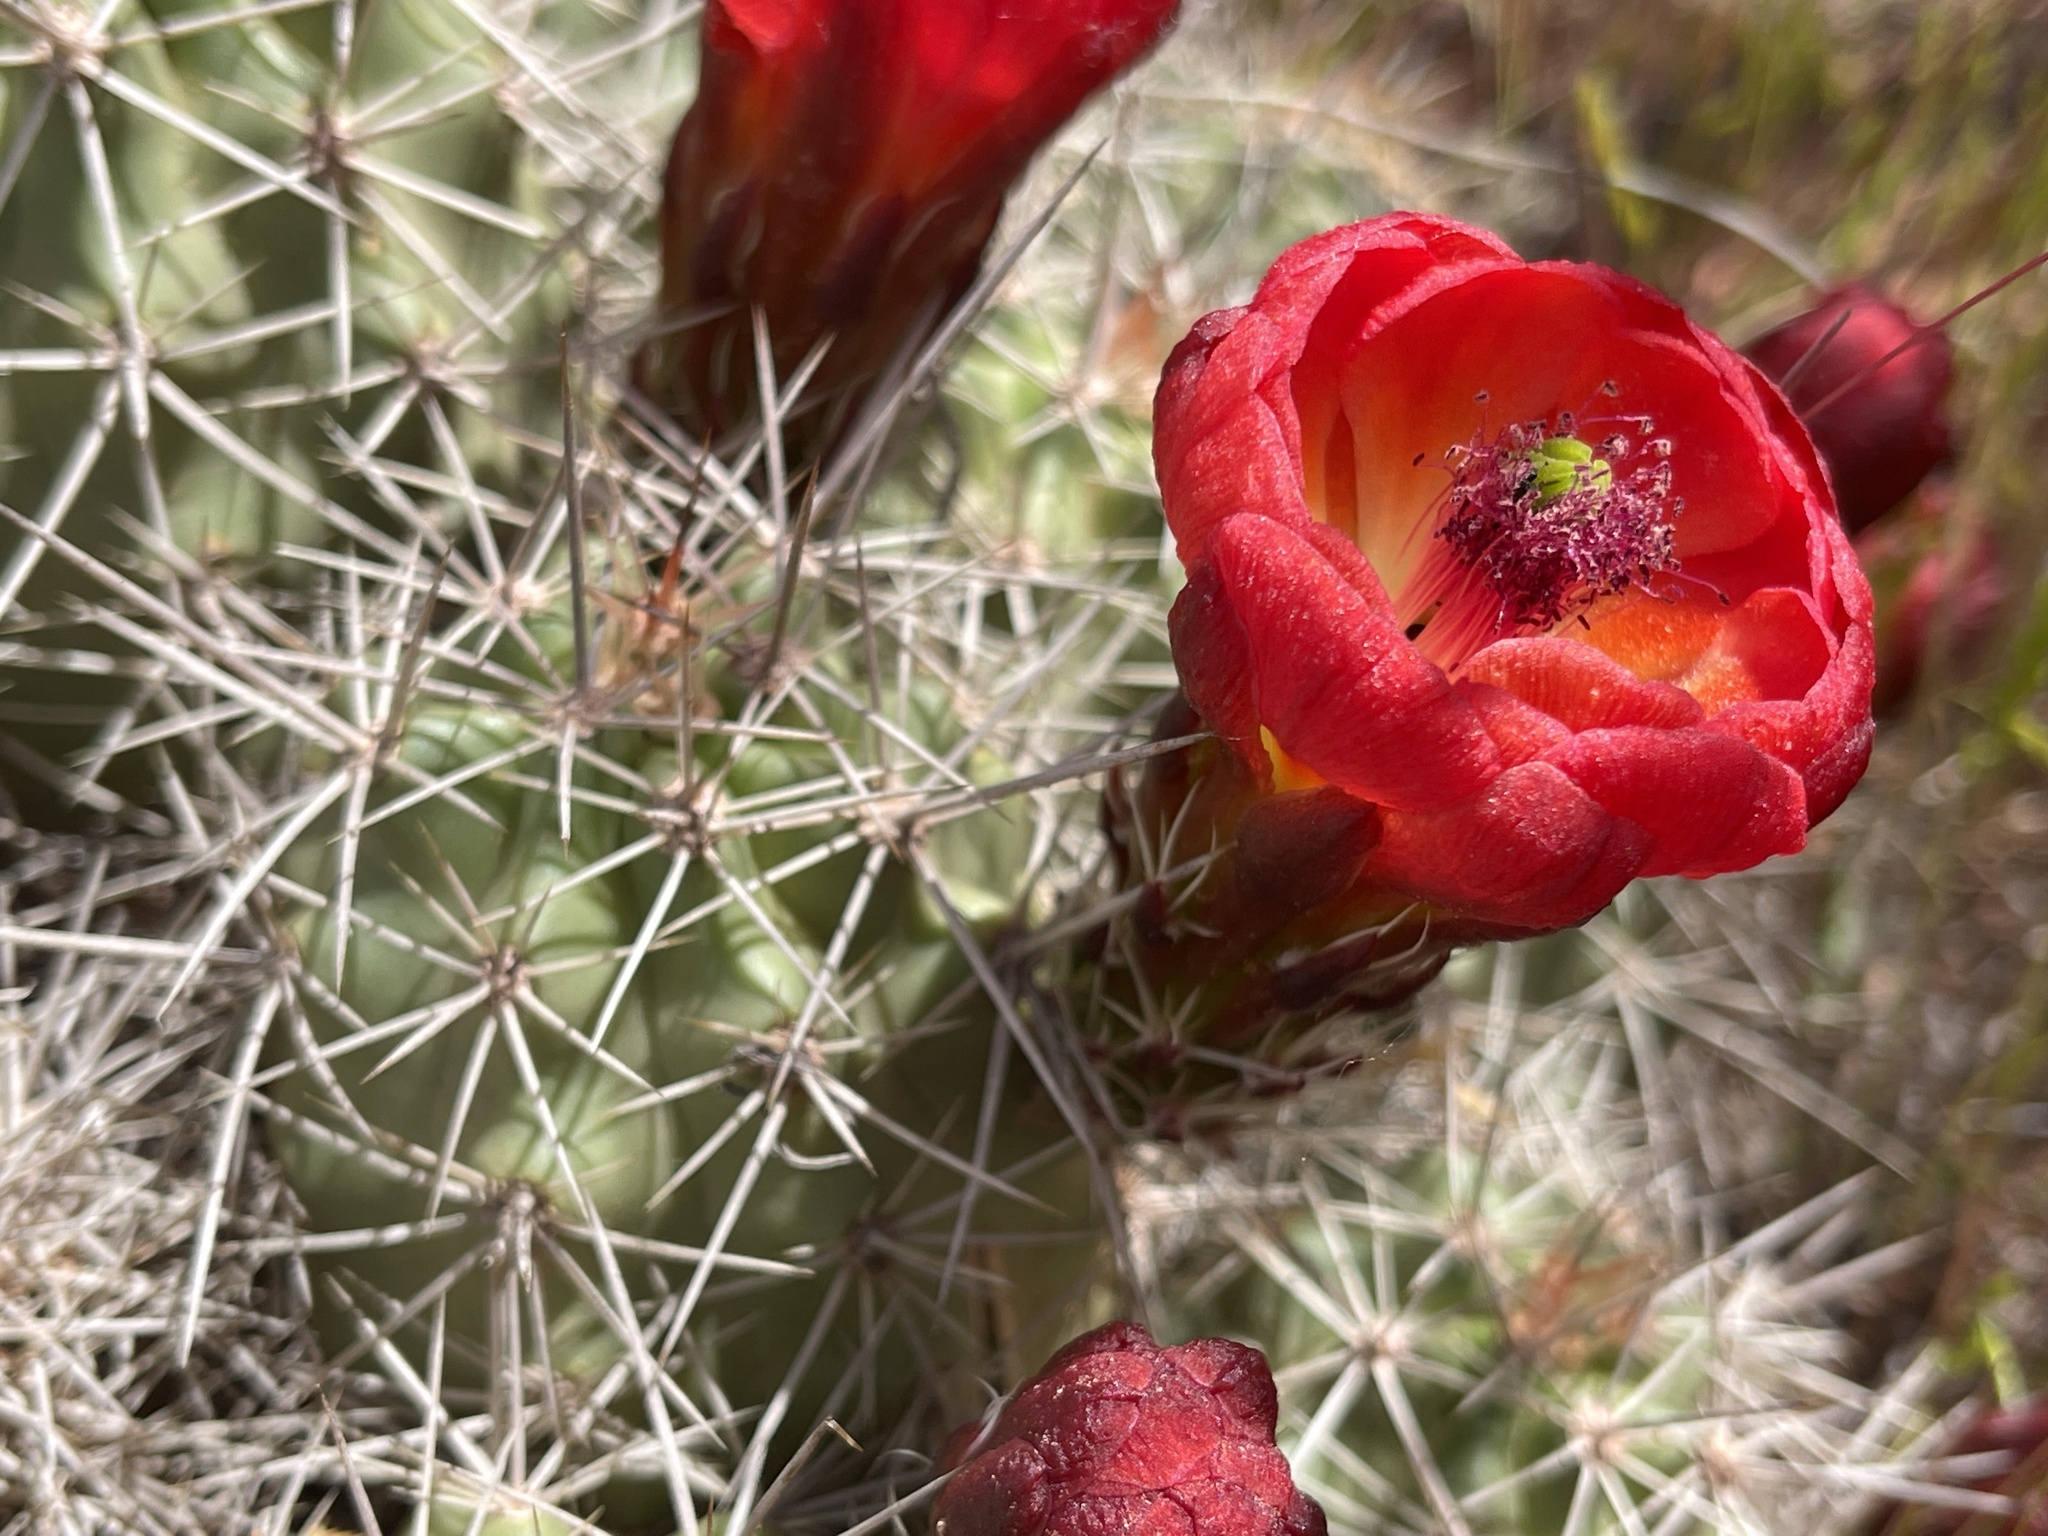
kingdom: Plantae
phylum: Tracheophyta
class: Magnoliopsida
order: Caryophyllales
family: Cactaceae
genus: Echinocereus
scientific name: Echinocereus triglochidiatus
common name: Claretcup hedgehog
